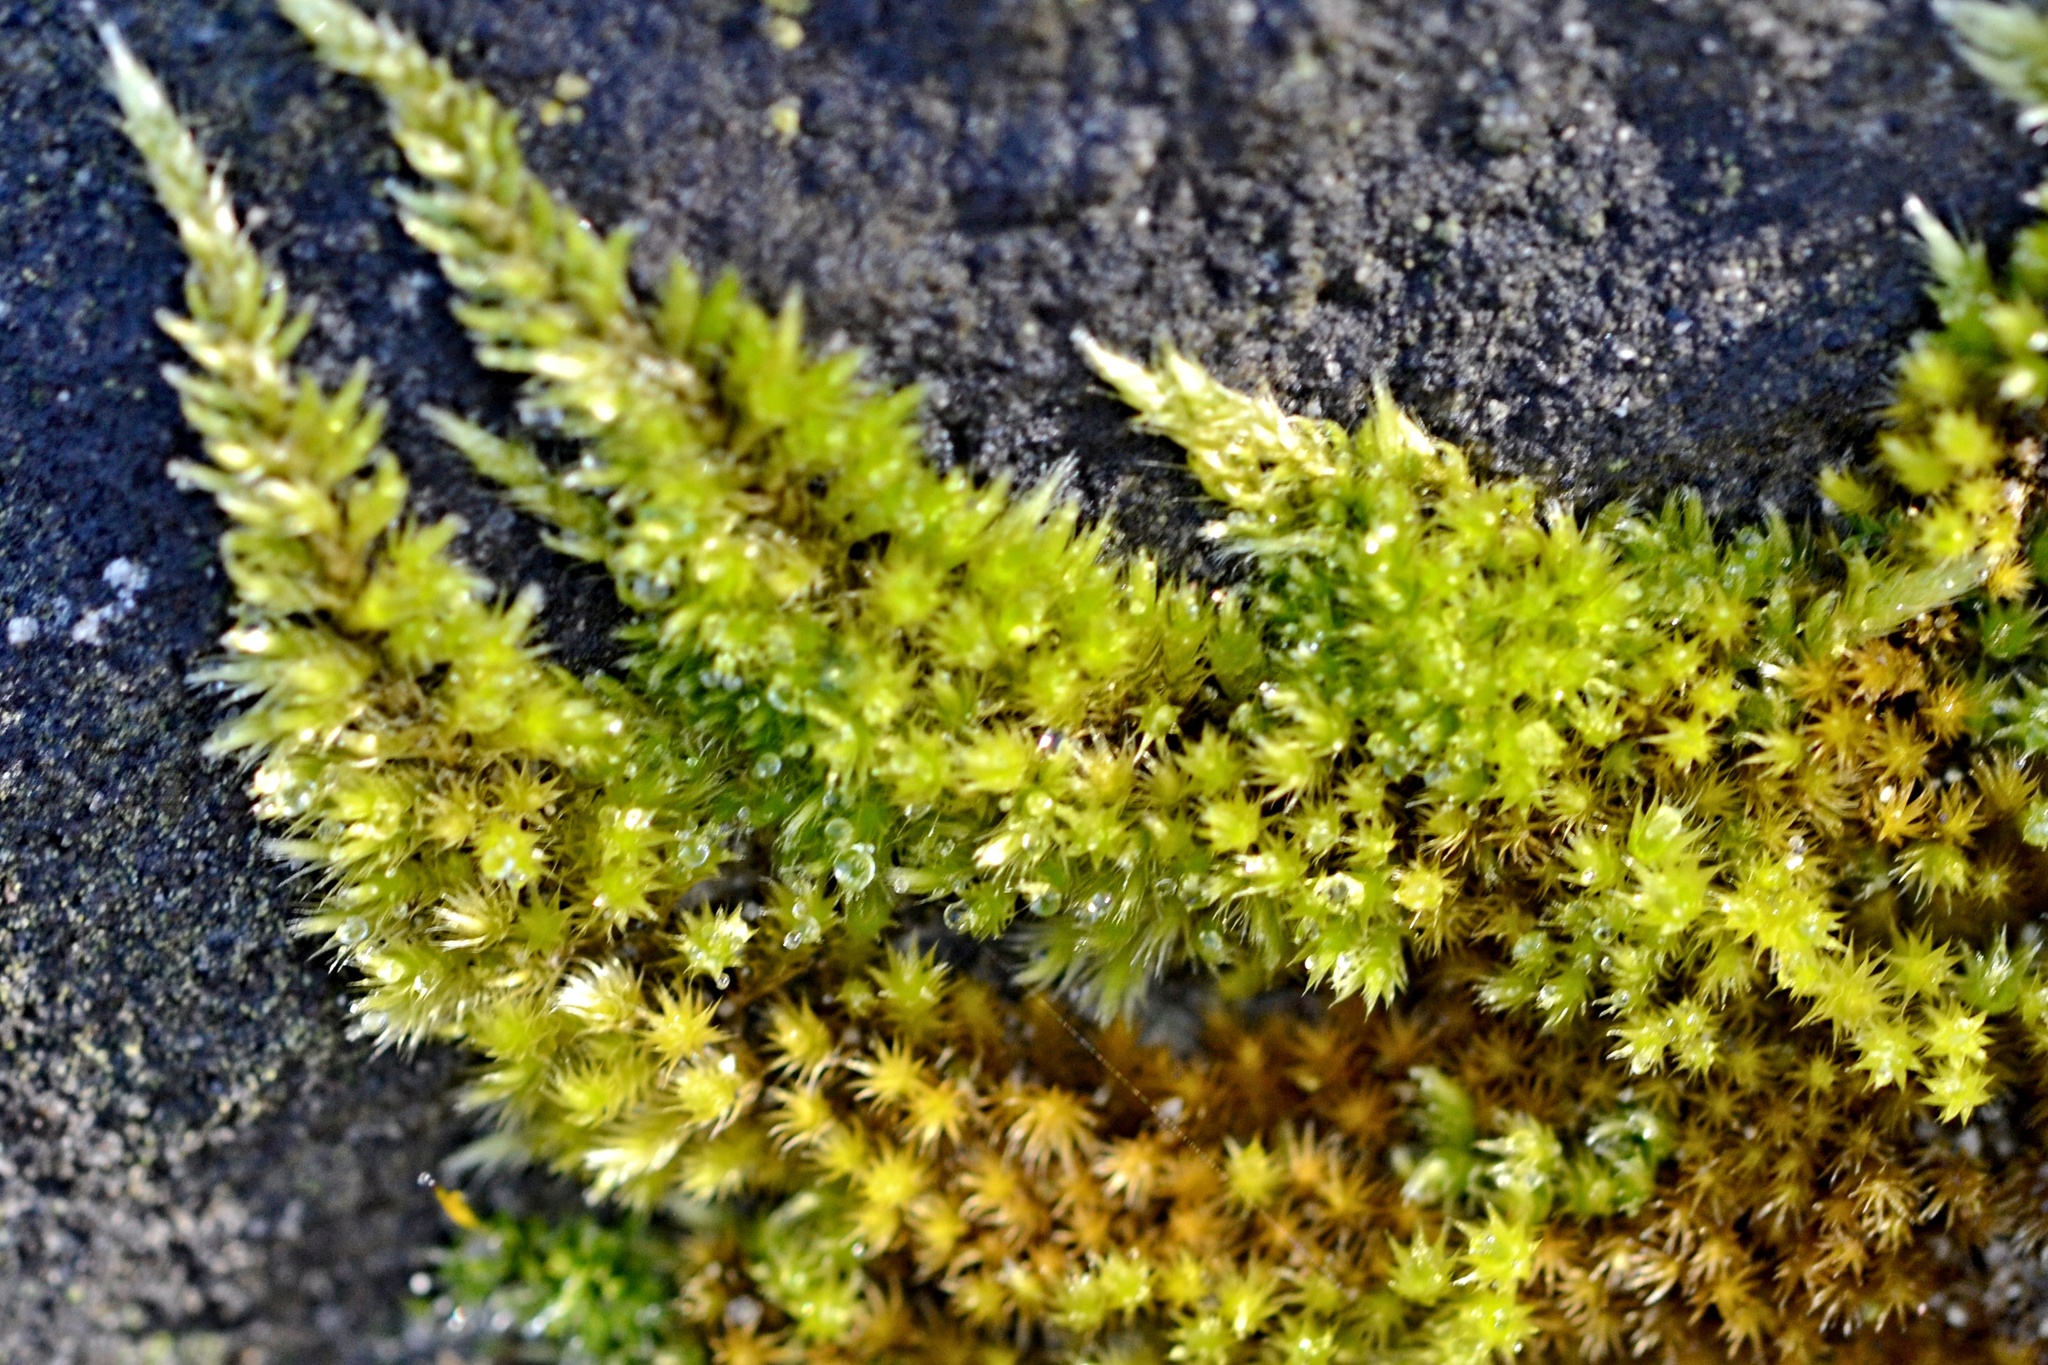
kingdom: Plantae
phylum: Bryophyta
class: Bryopsida
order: Hypnales
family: Brachytheciaceae
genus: Homalothecium
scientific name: Homalothecium sericeum
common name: Silky wall feather-moss
